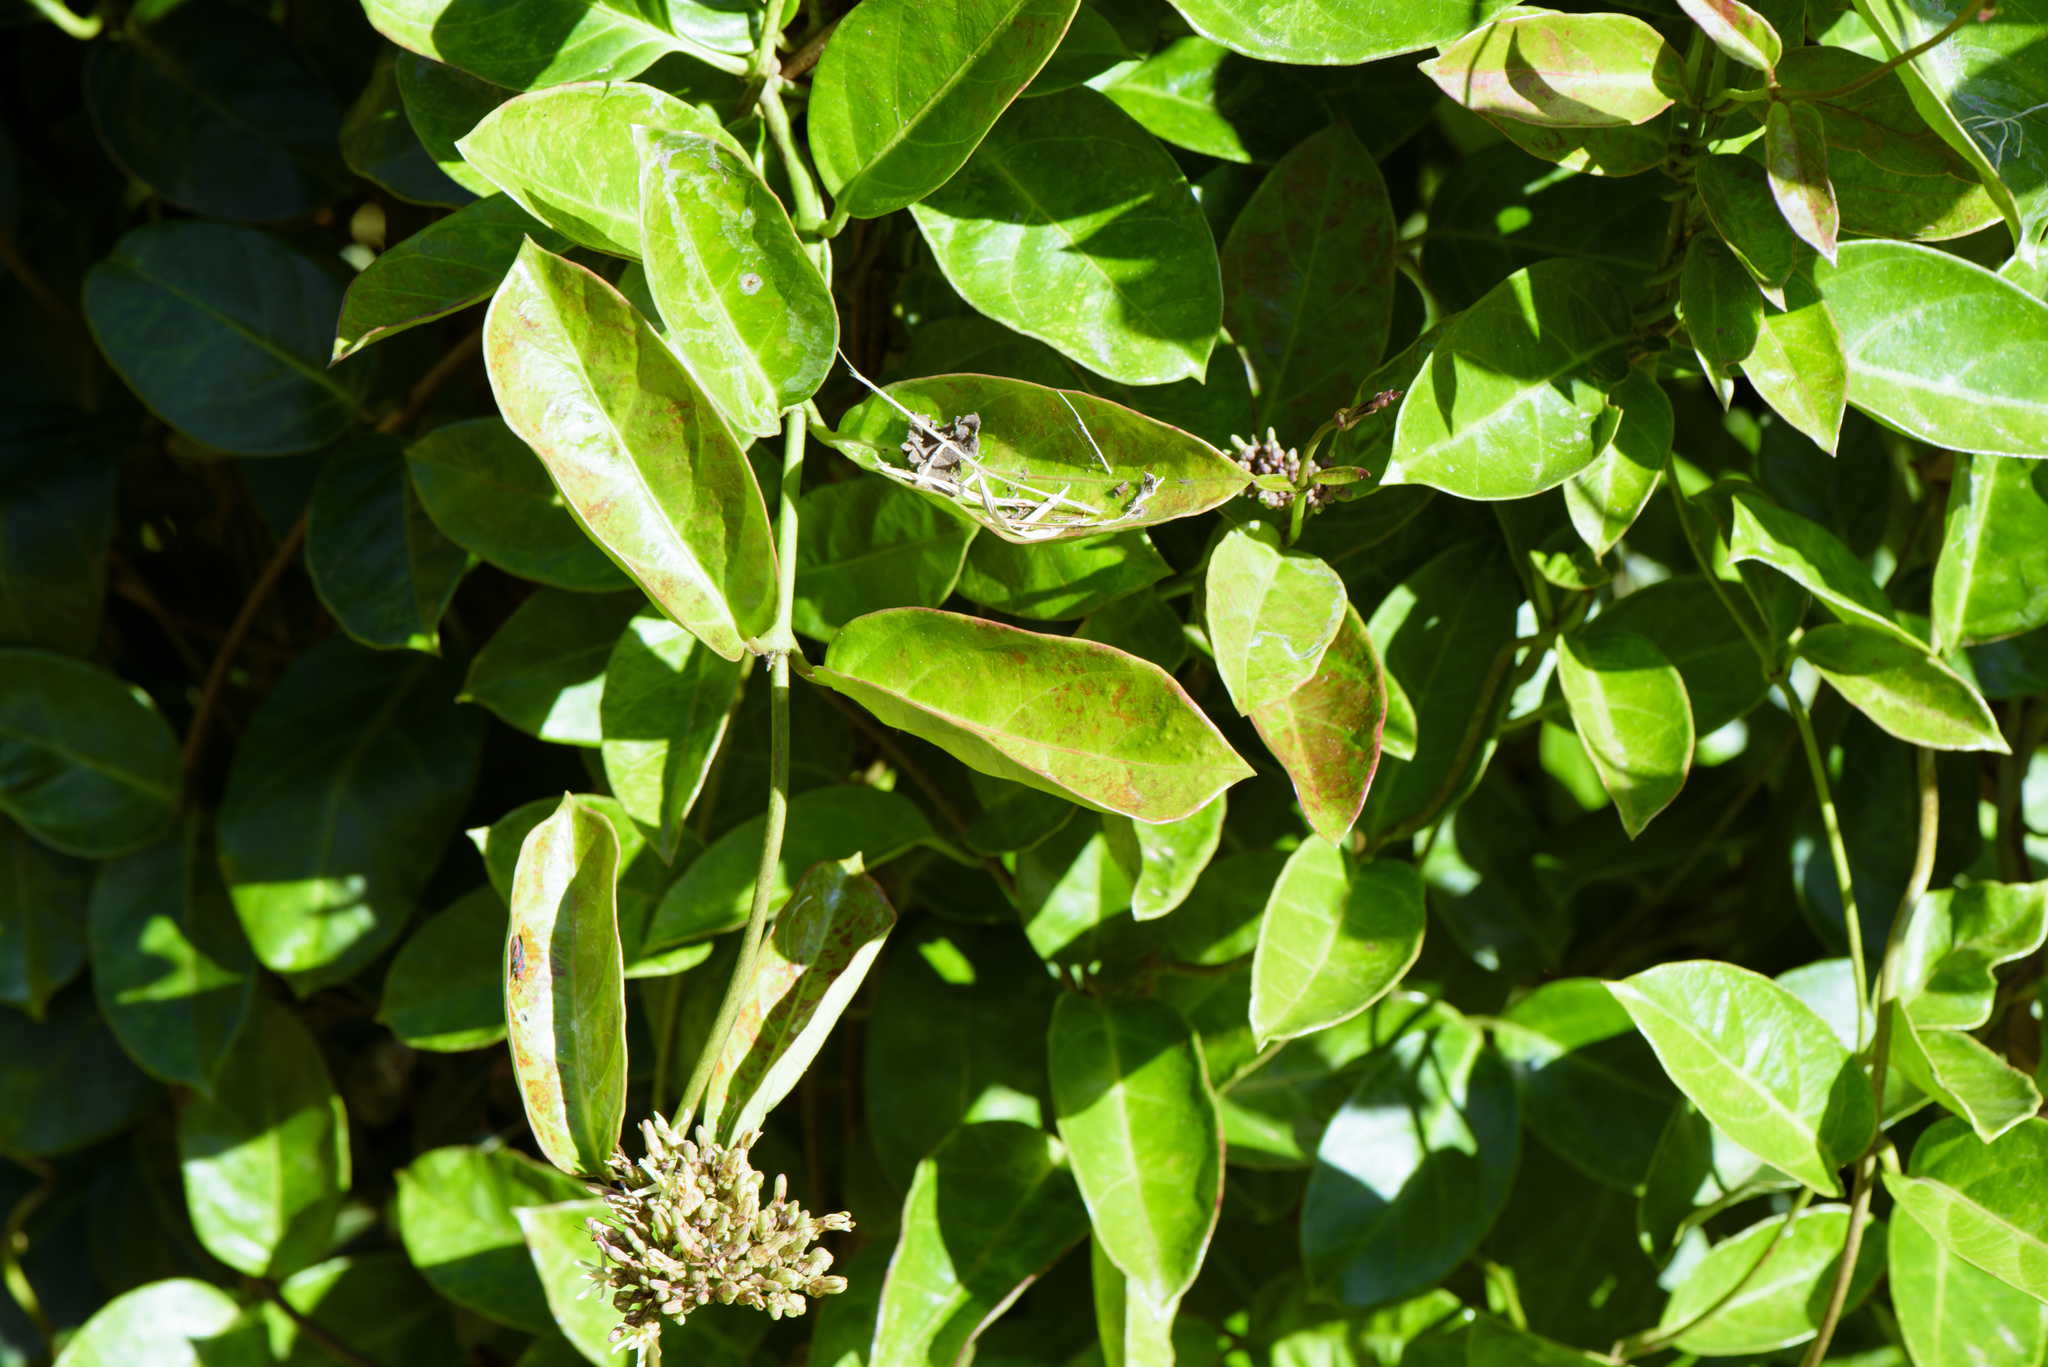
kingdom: Plantae
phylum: Tracheophyta
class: Magnoliopsida
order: Gentianales
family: Apocynaceae
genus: Parsonsia
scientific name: Parsonsia alboflavescens
